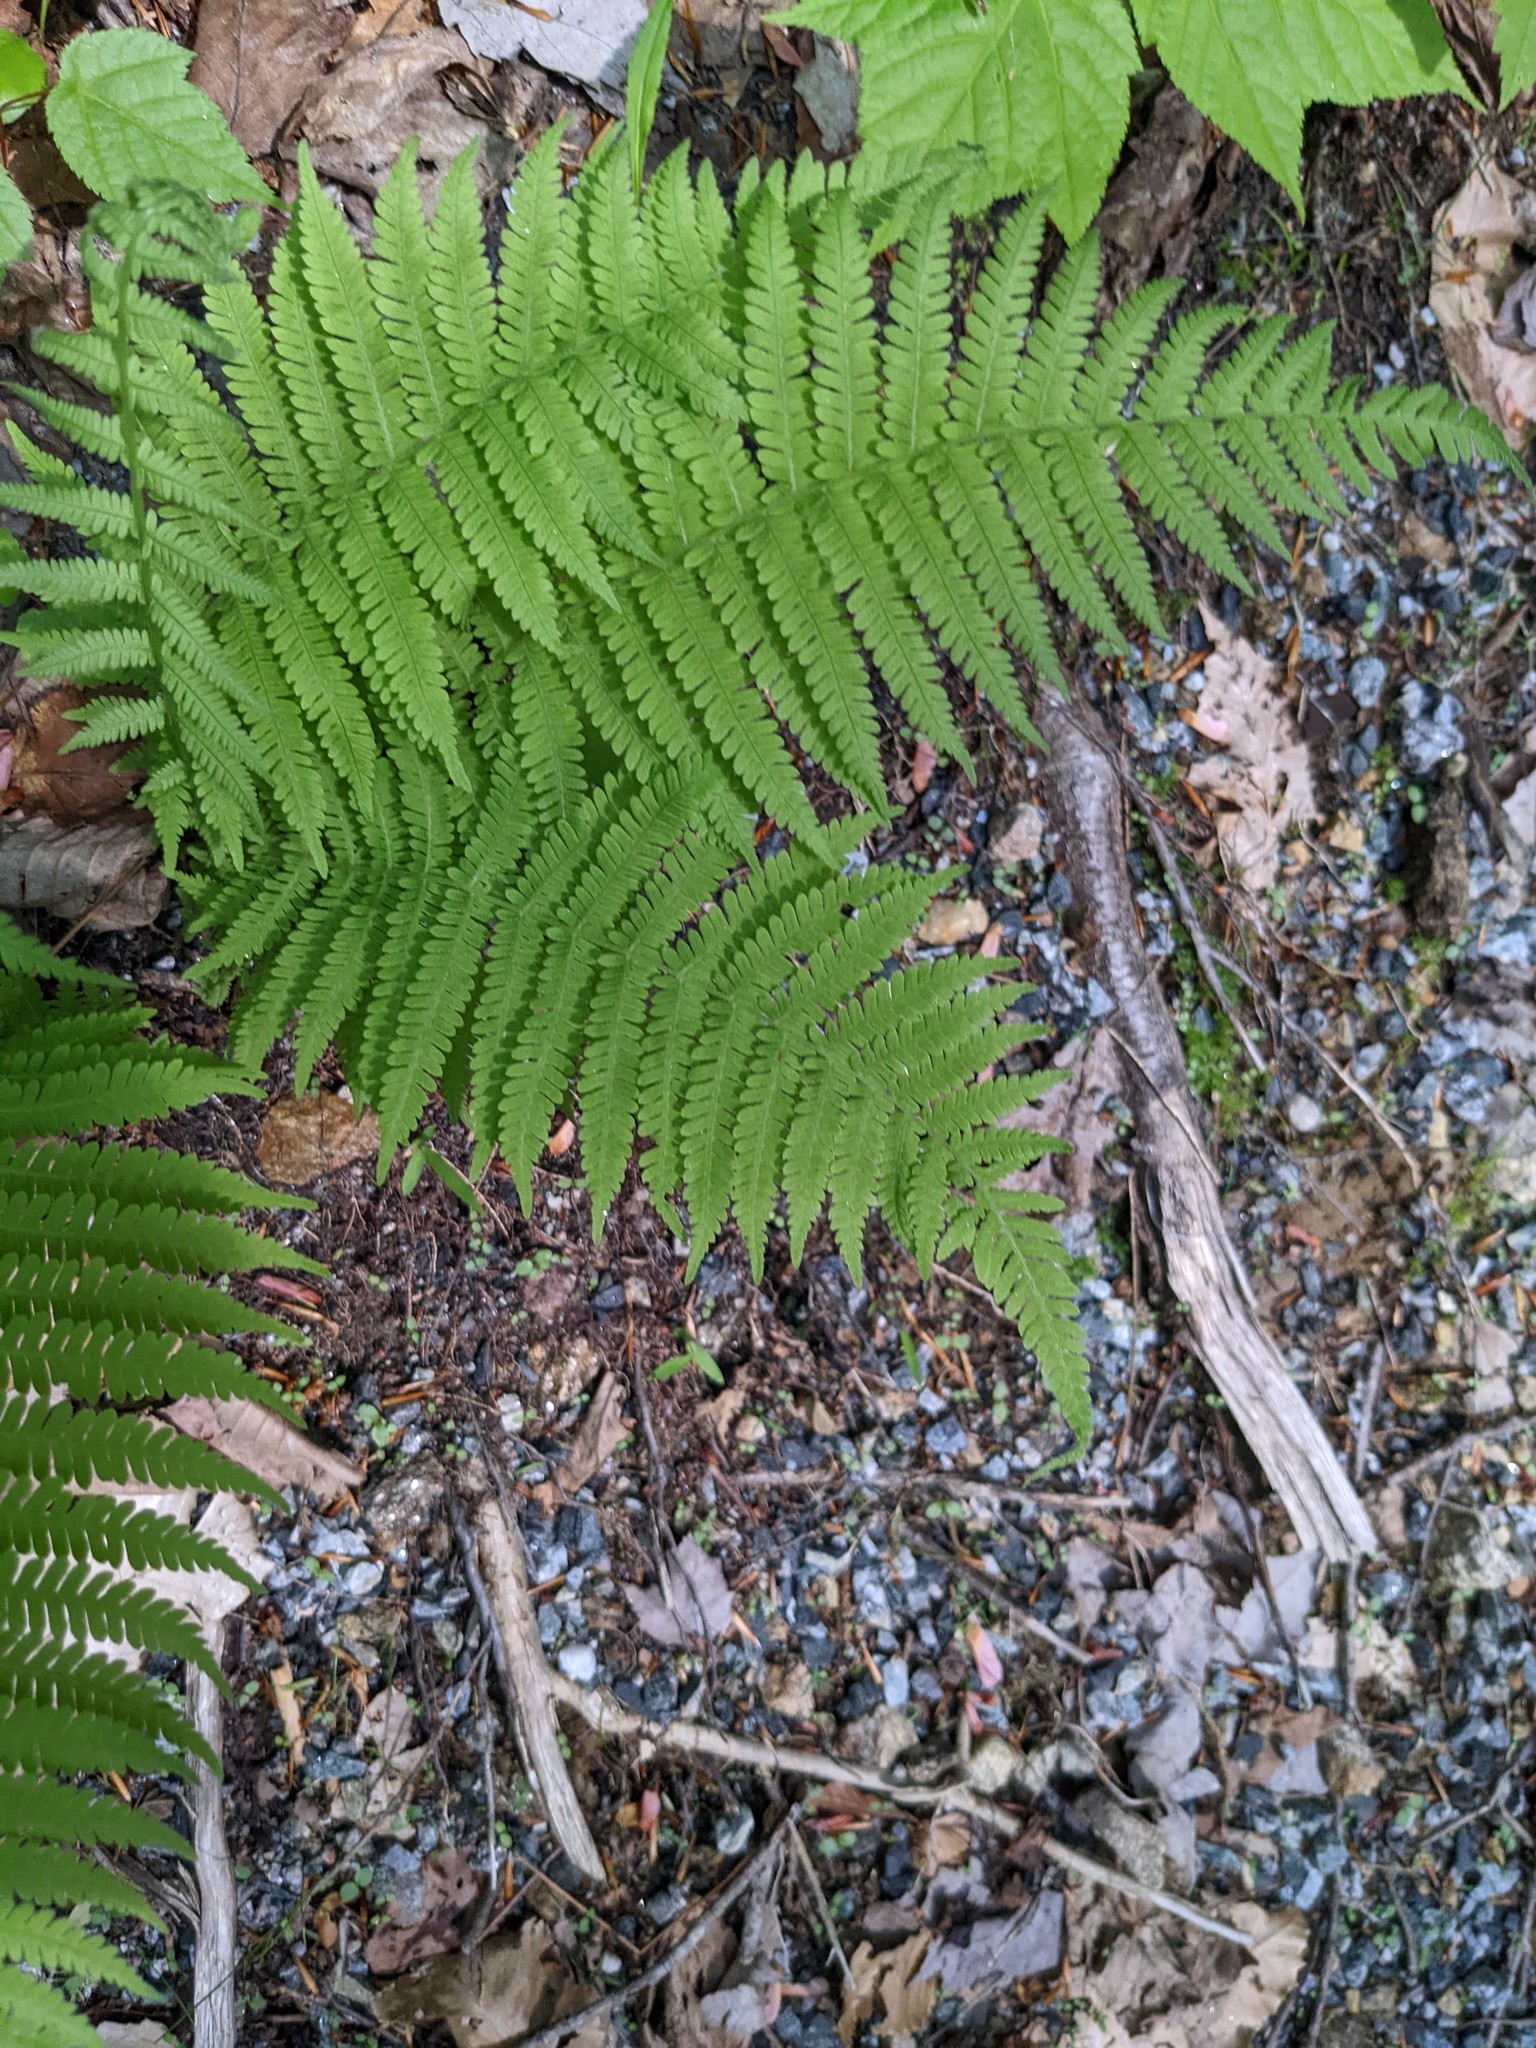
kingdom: Plantae
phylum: Tracheophyta
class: Polypodiopsida
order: Polypodiales
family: Thelypteridaceae
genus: Amauropelta
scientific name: Amauropelta noveboracensis
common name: New york fern
